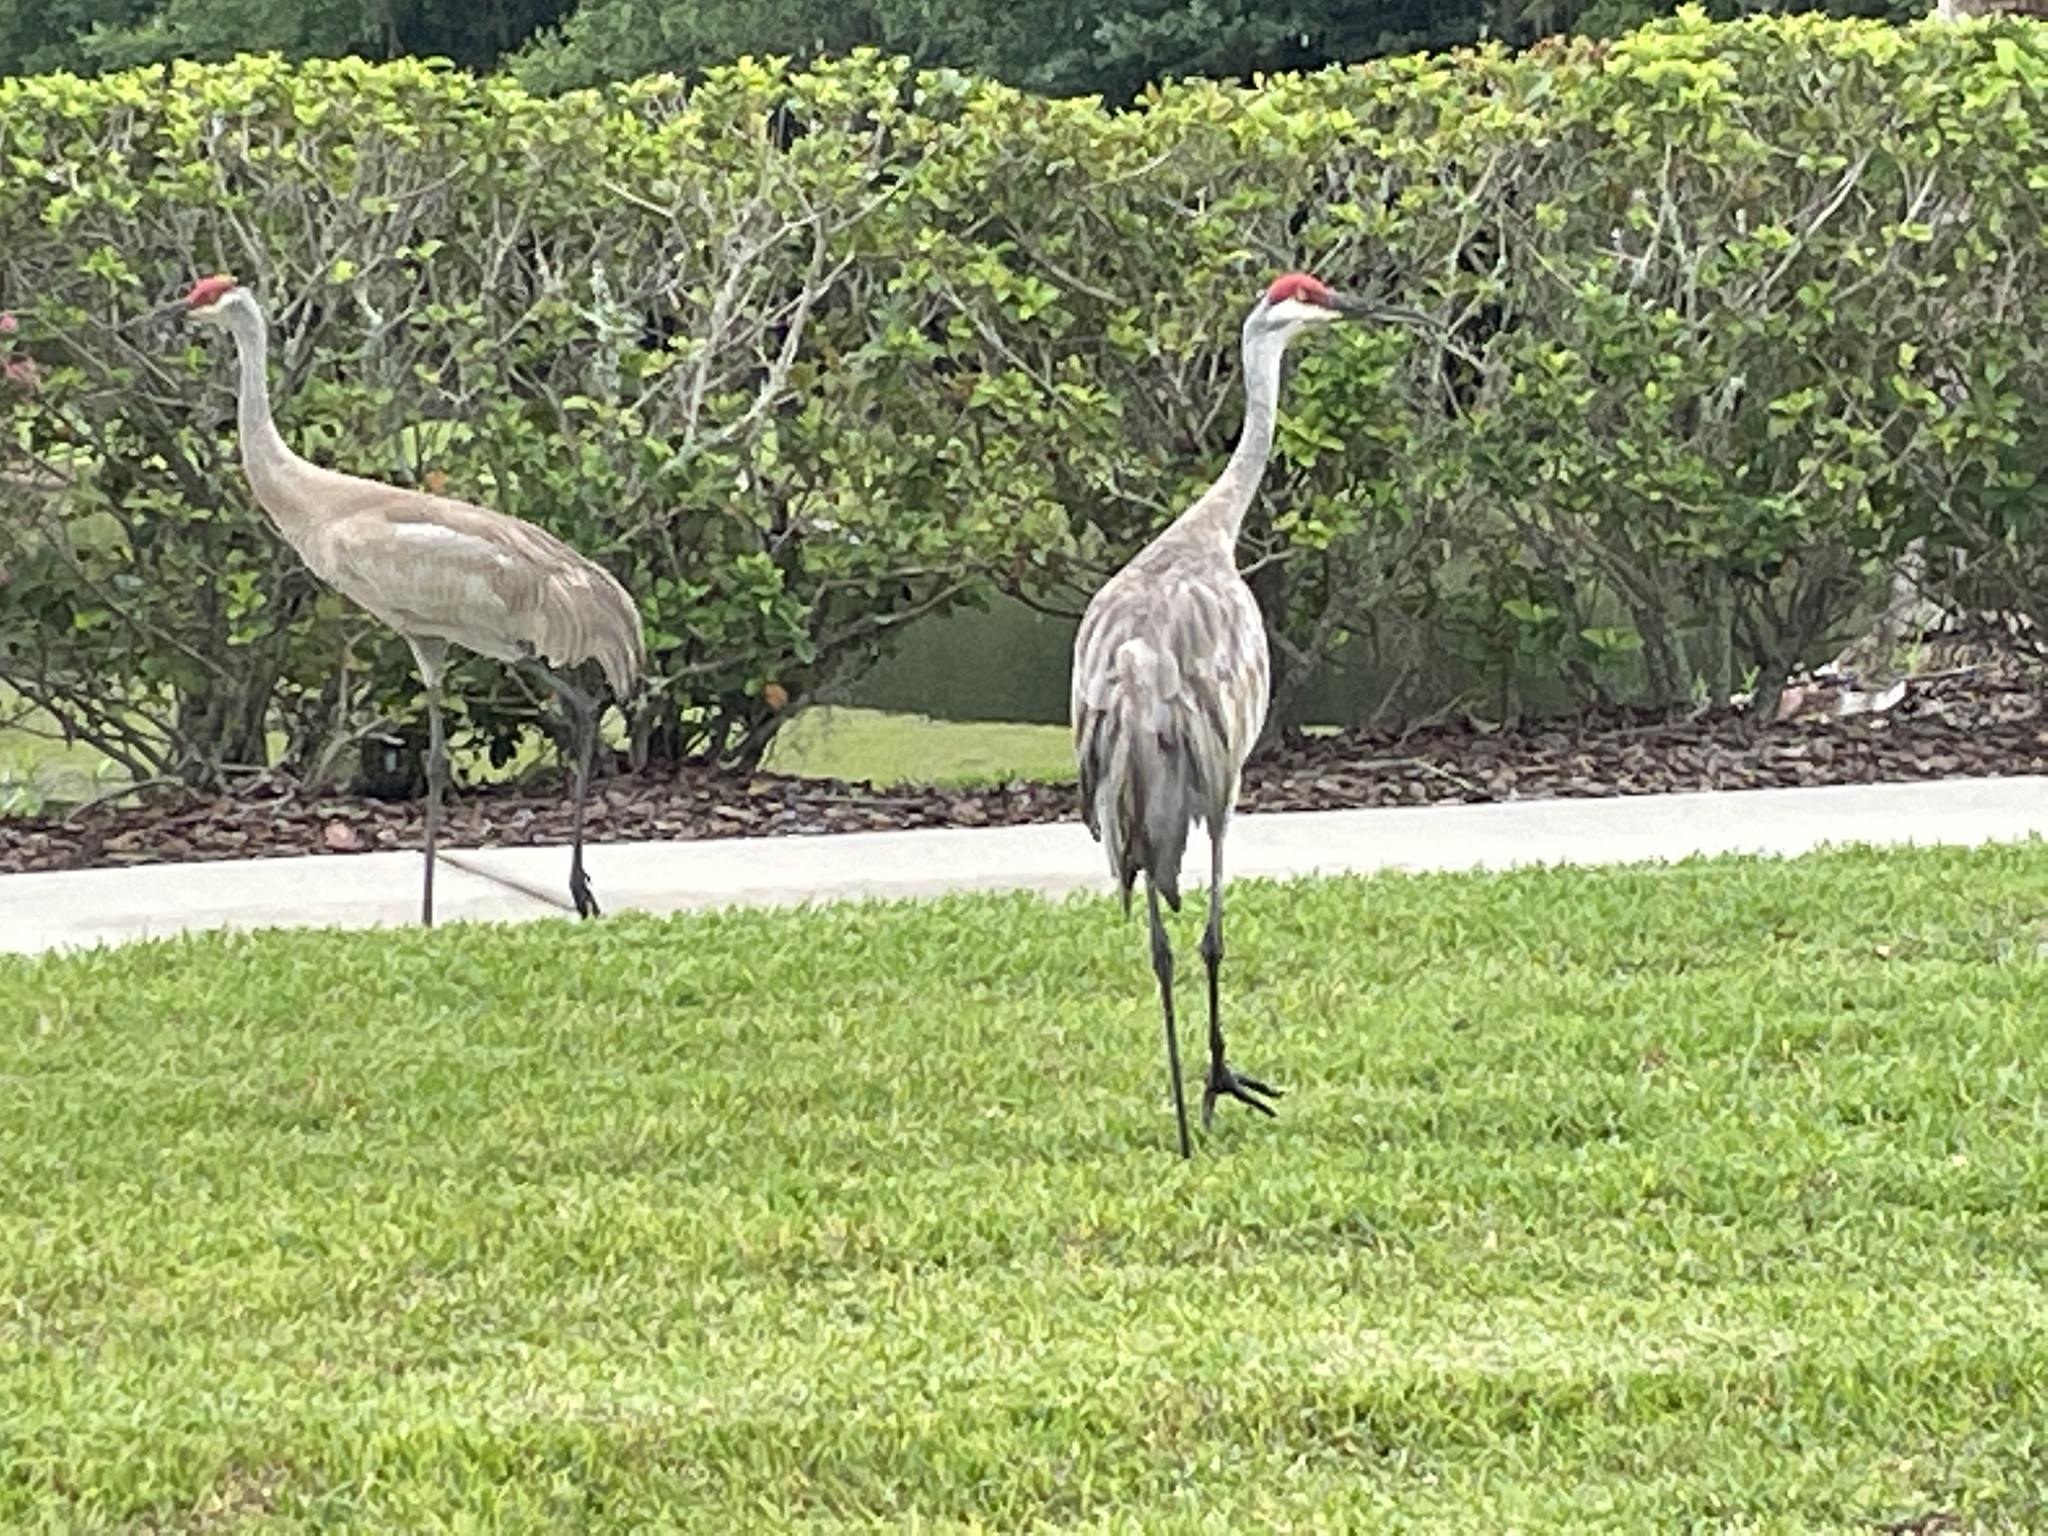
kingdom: Animalia
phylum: Chordata
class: Aves
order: Gruiformes
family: Gruidae
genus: Grus
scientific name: Grus canadensis
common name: Sandhill crane
